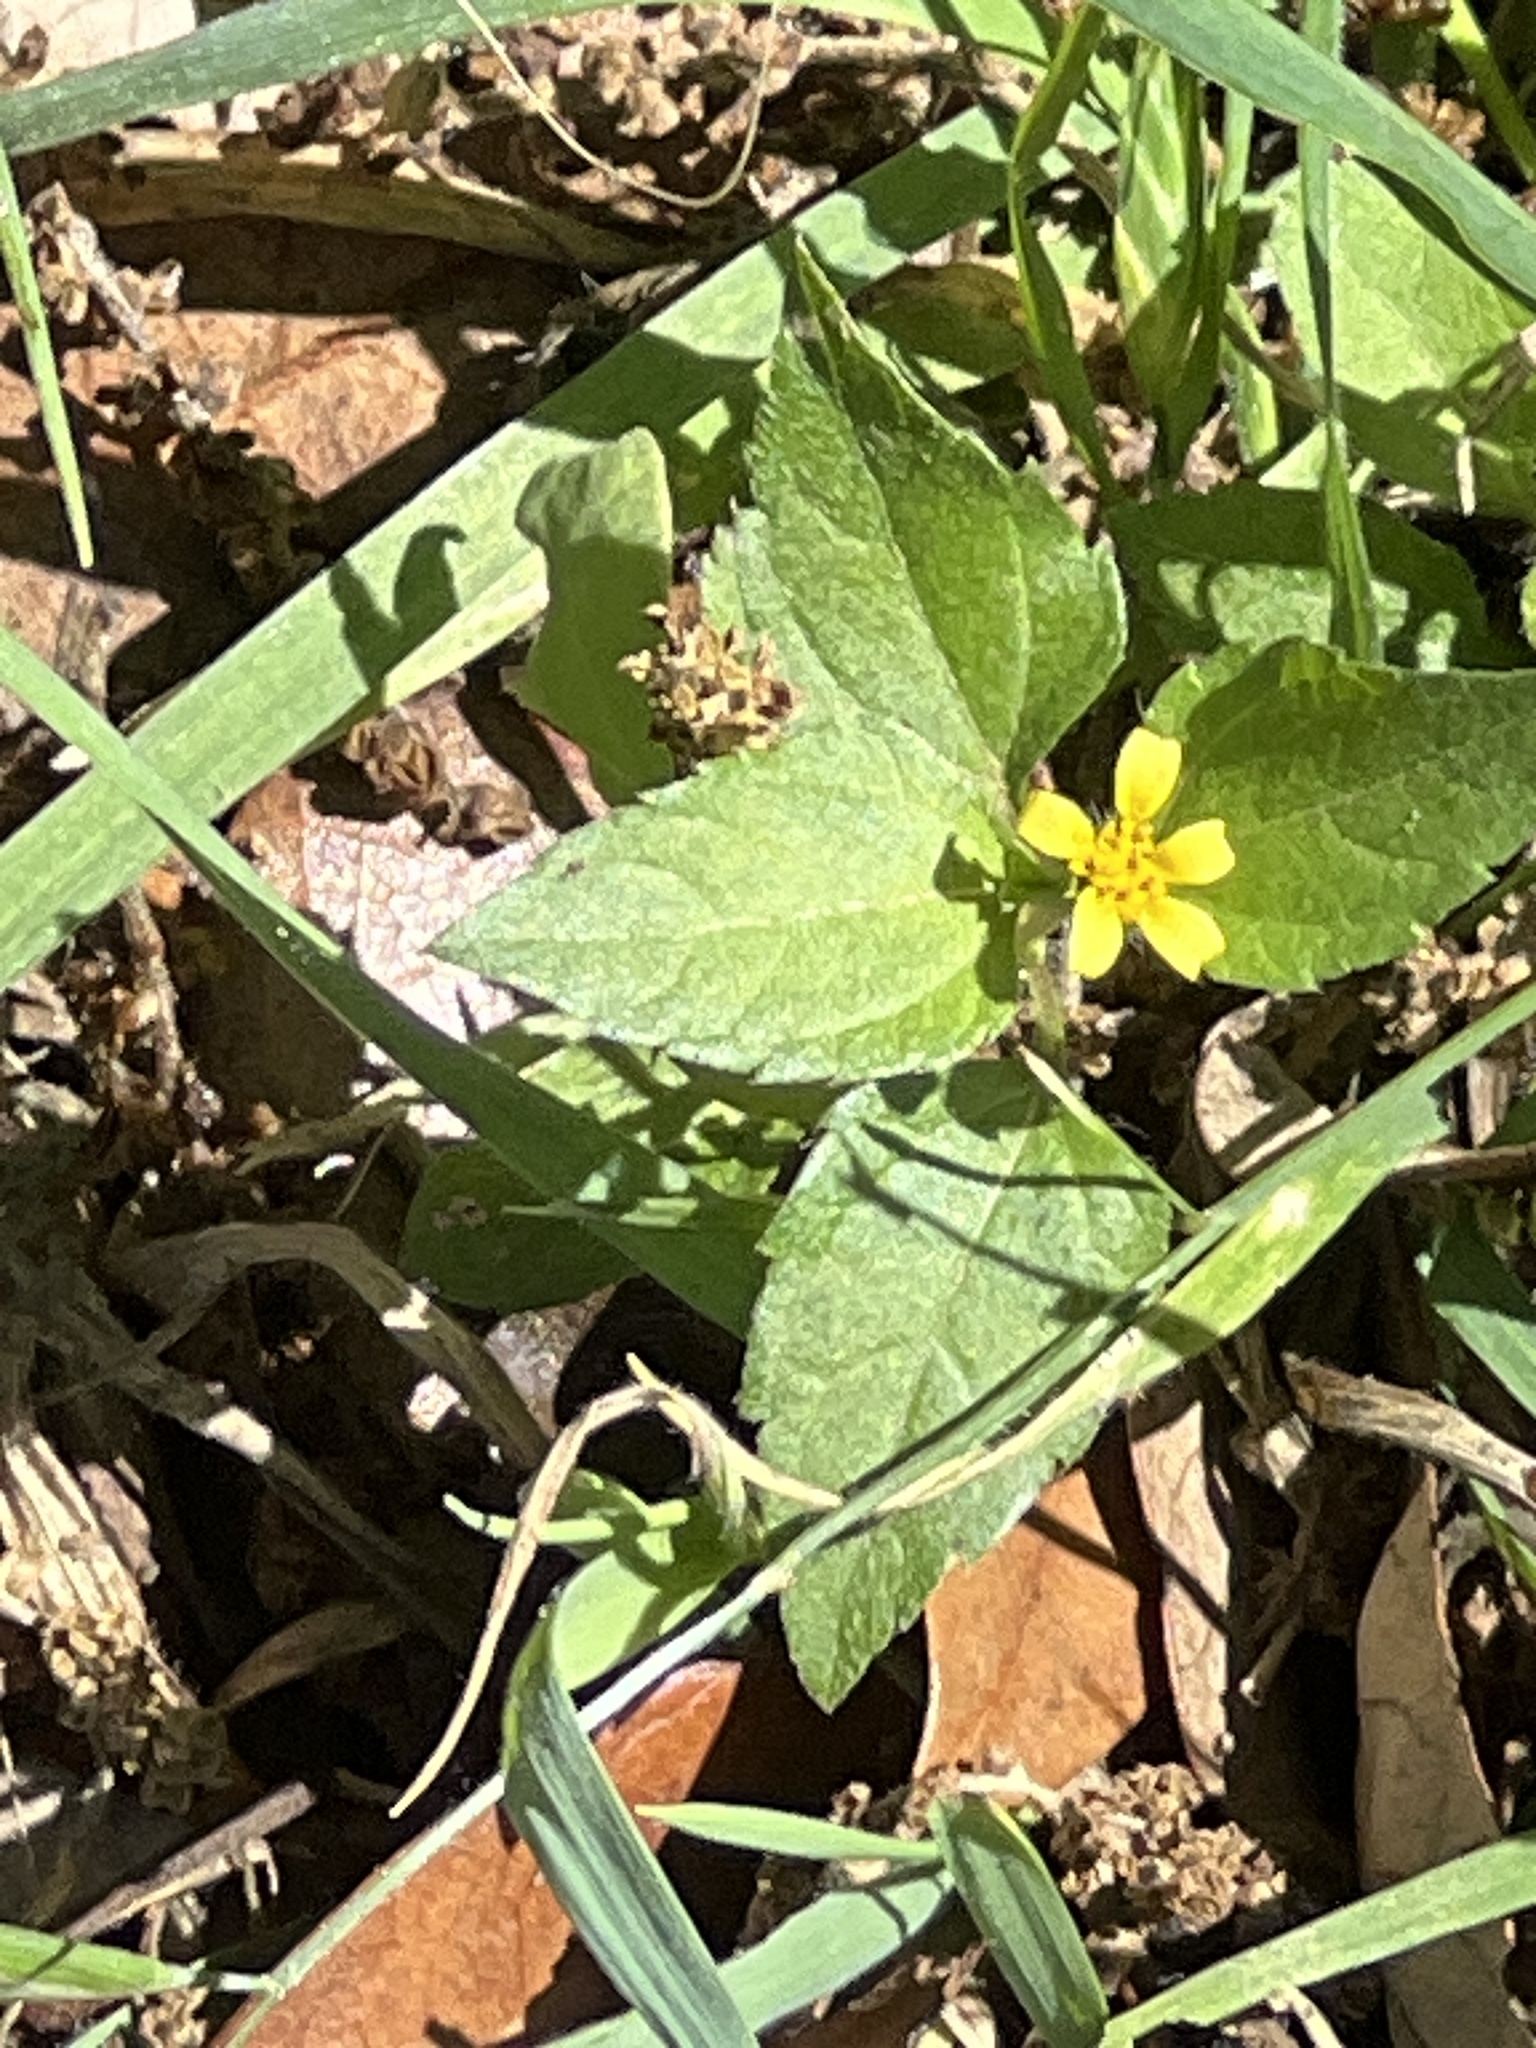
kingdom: Plantae
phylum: Tracheophyta
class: Magnoliopsida
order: Asterales
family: Asteraceae
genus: Calyptocarpus
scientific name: Calyptocarpus vialis
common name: Straggler daisy
